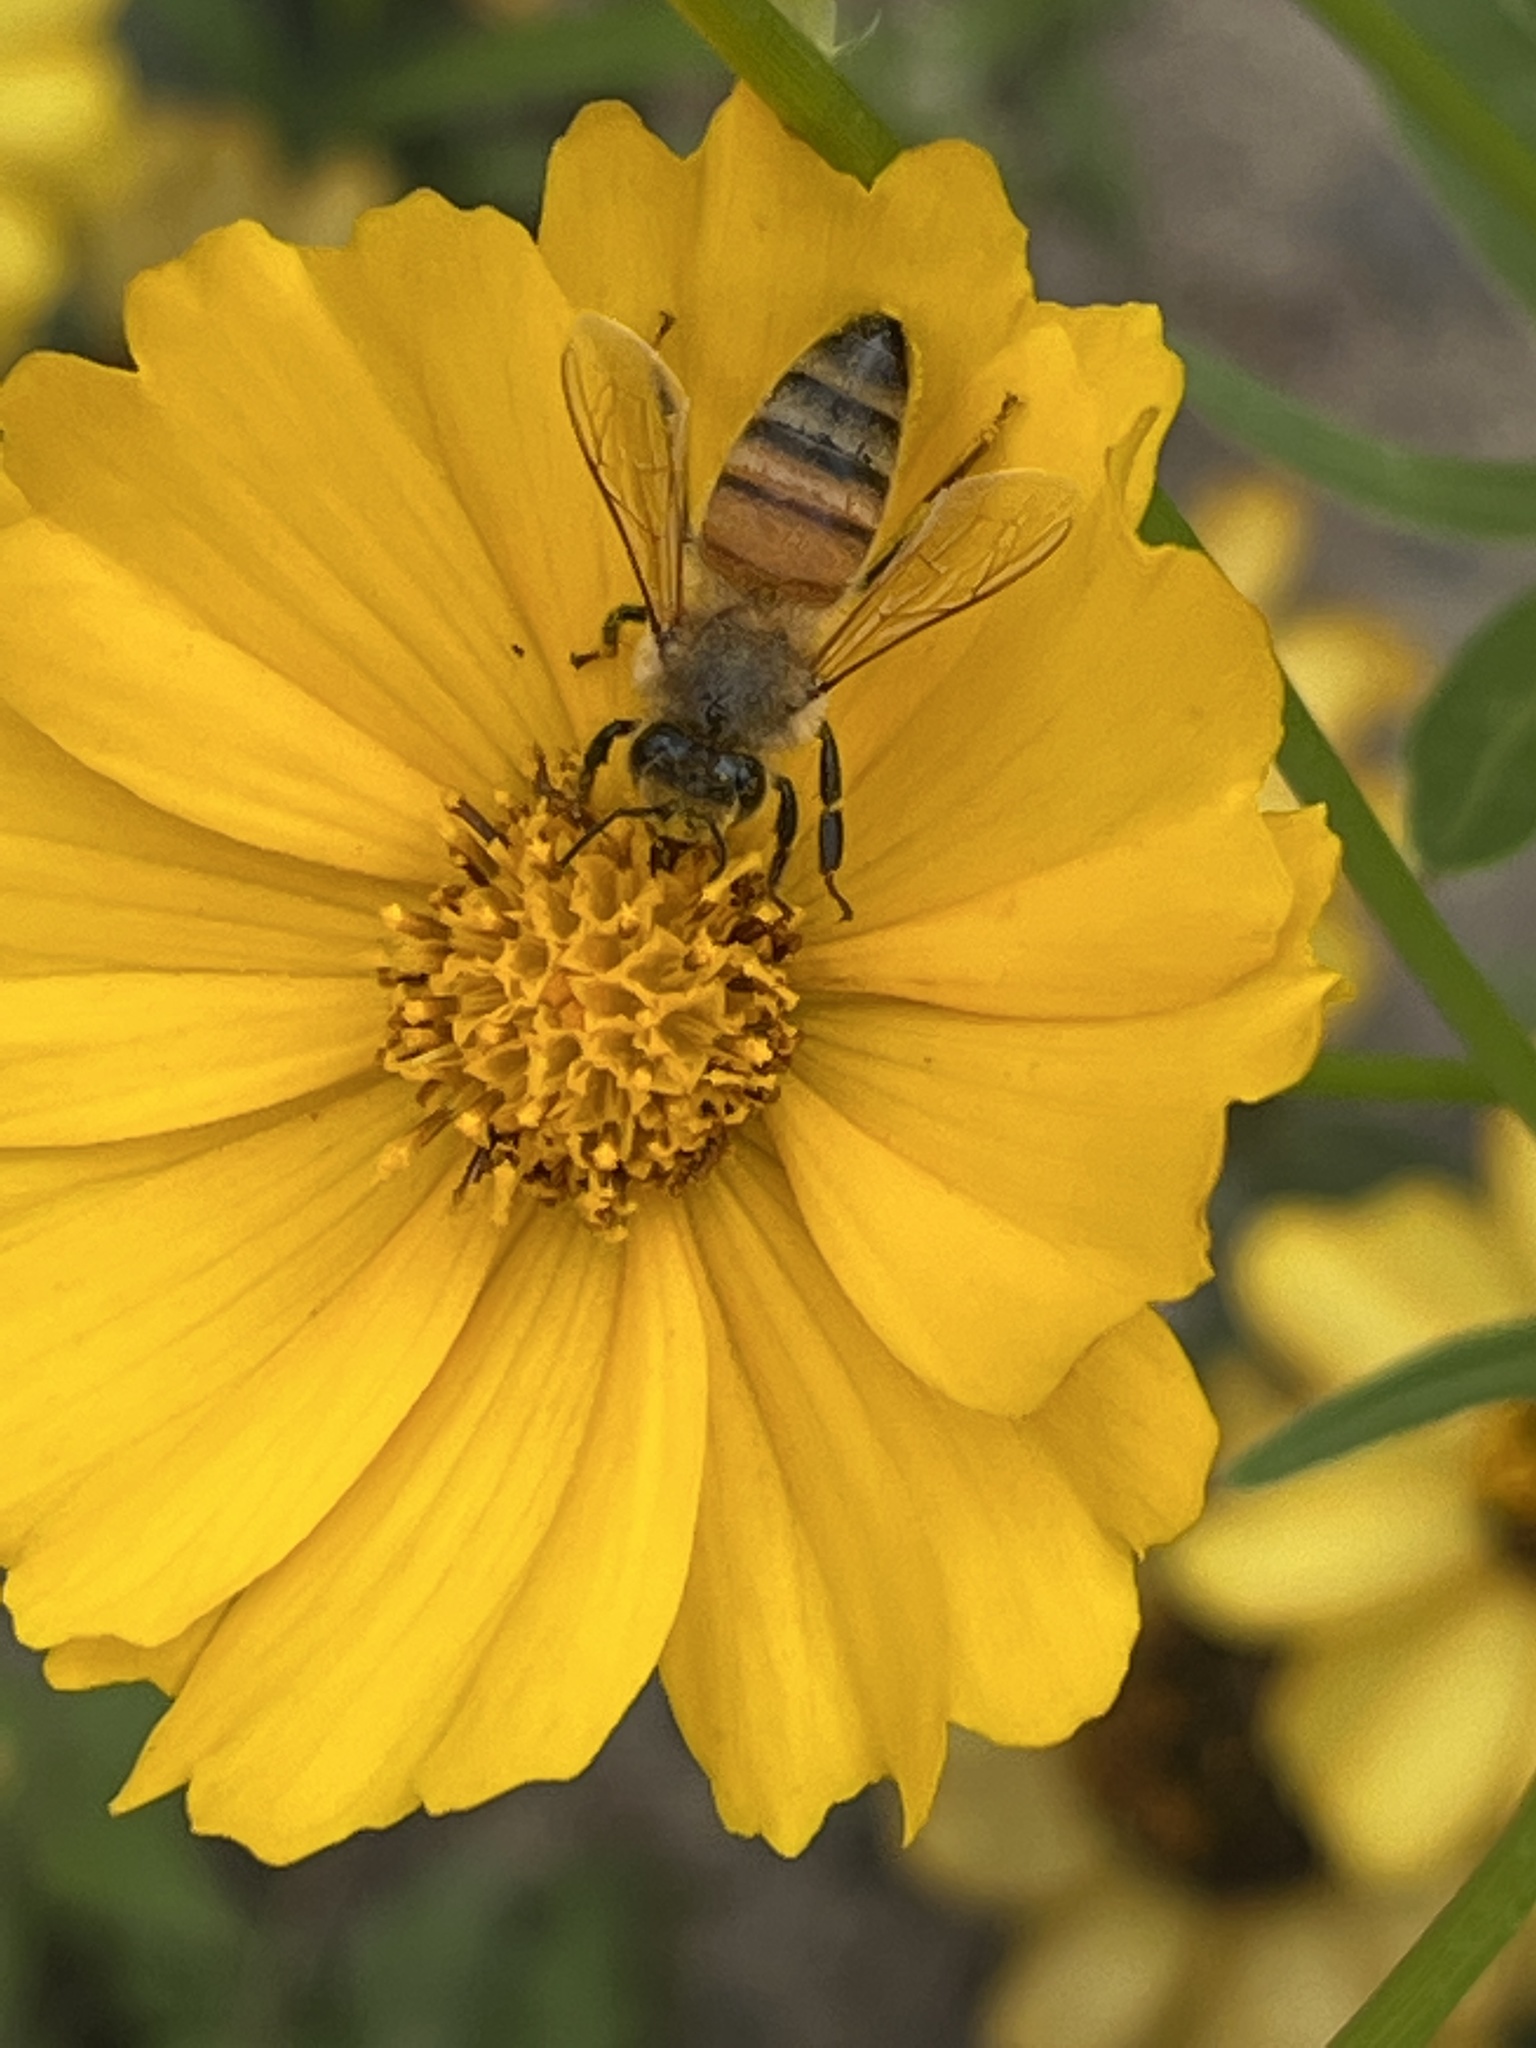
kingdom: Animalia
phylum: Arthropoda
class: Insecta
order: Hymenoptera
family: Apidae
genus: Apis
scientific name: Apis mellifera
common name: Honey bee
